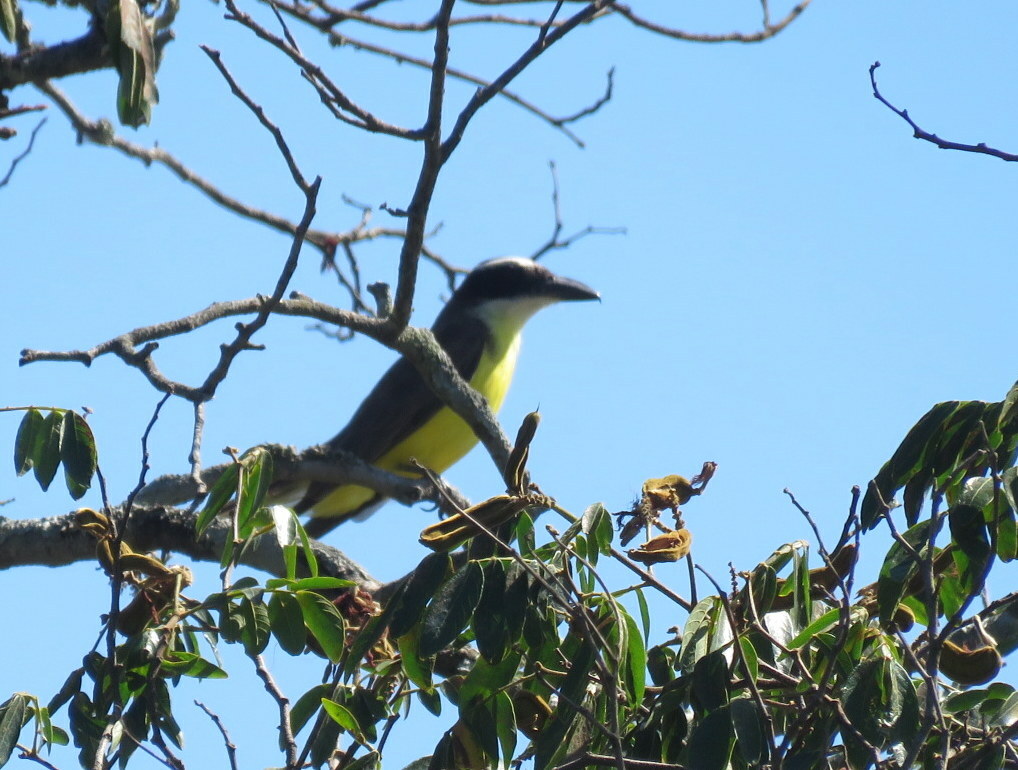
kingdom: Animalia
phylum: Chordata
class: Aves
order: Passeriformes
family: Tyrannidae
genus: Megarynchus
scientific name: Megarynchus pitangua
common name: Boat-billed flycatcher
